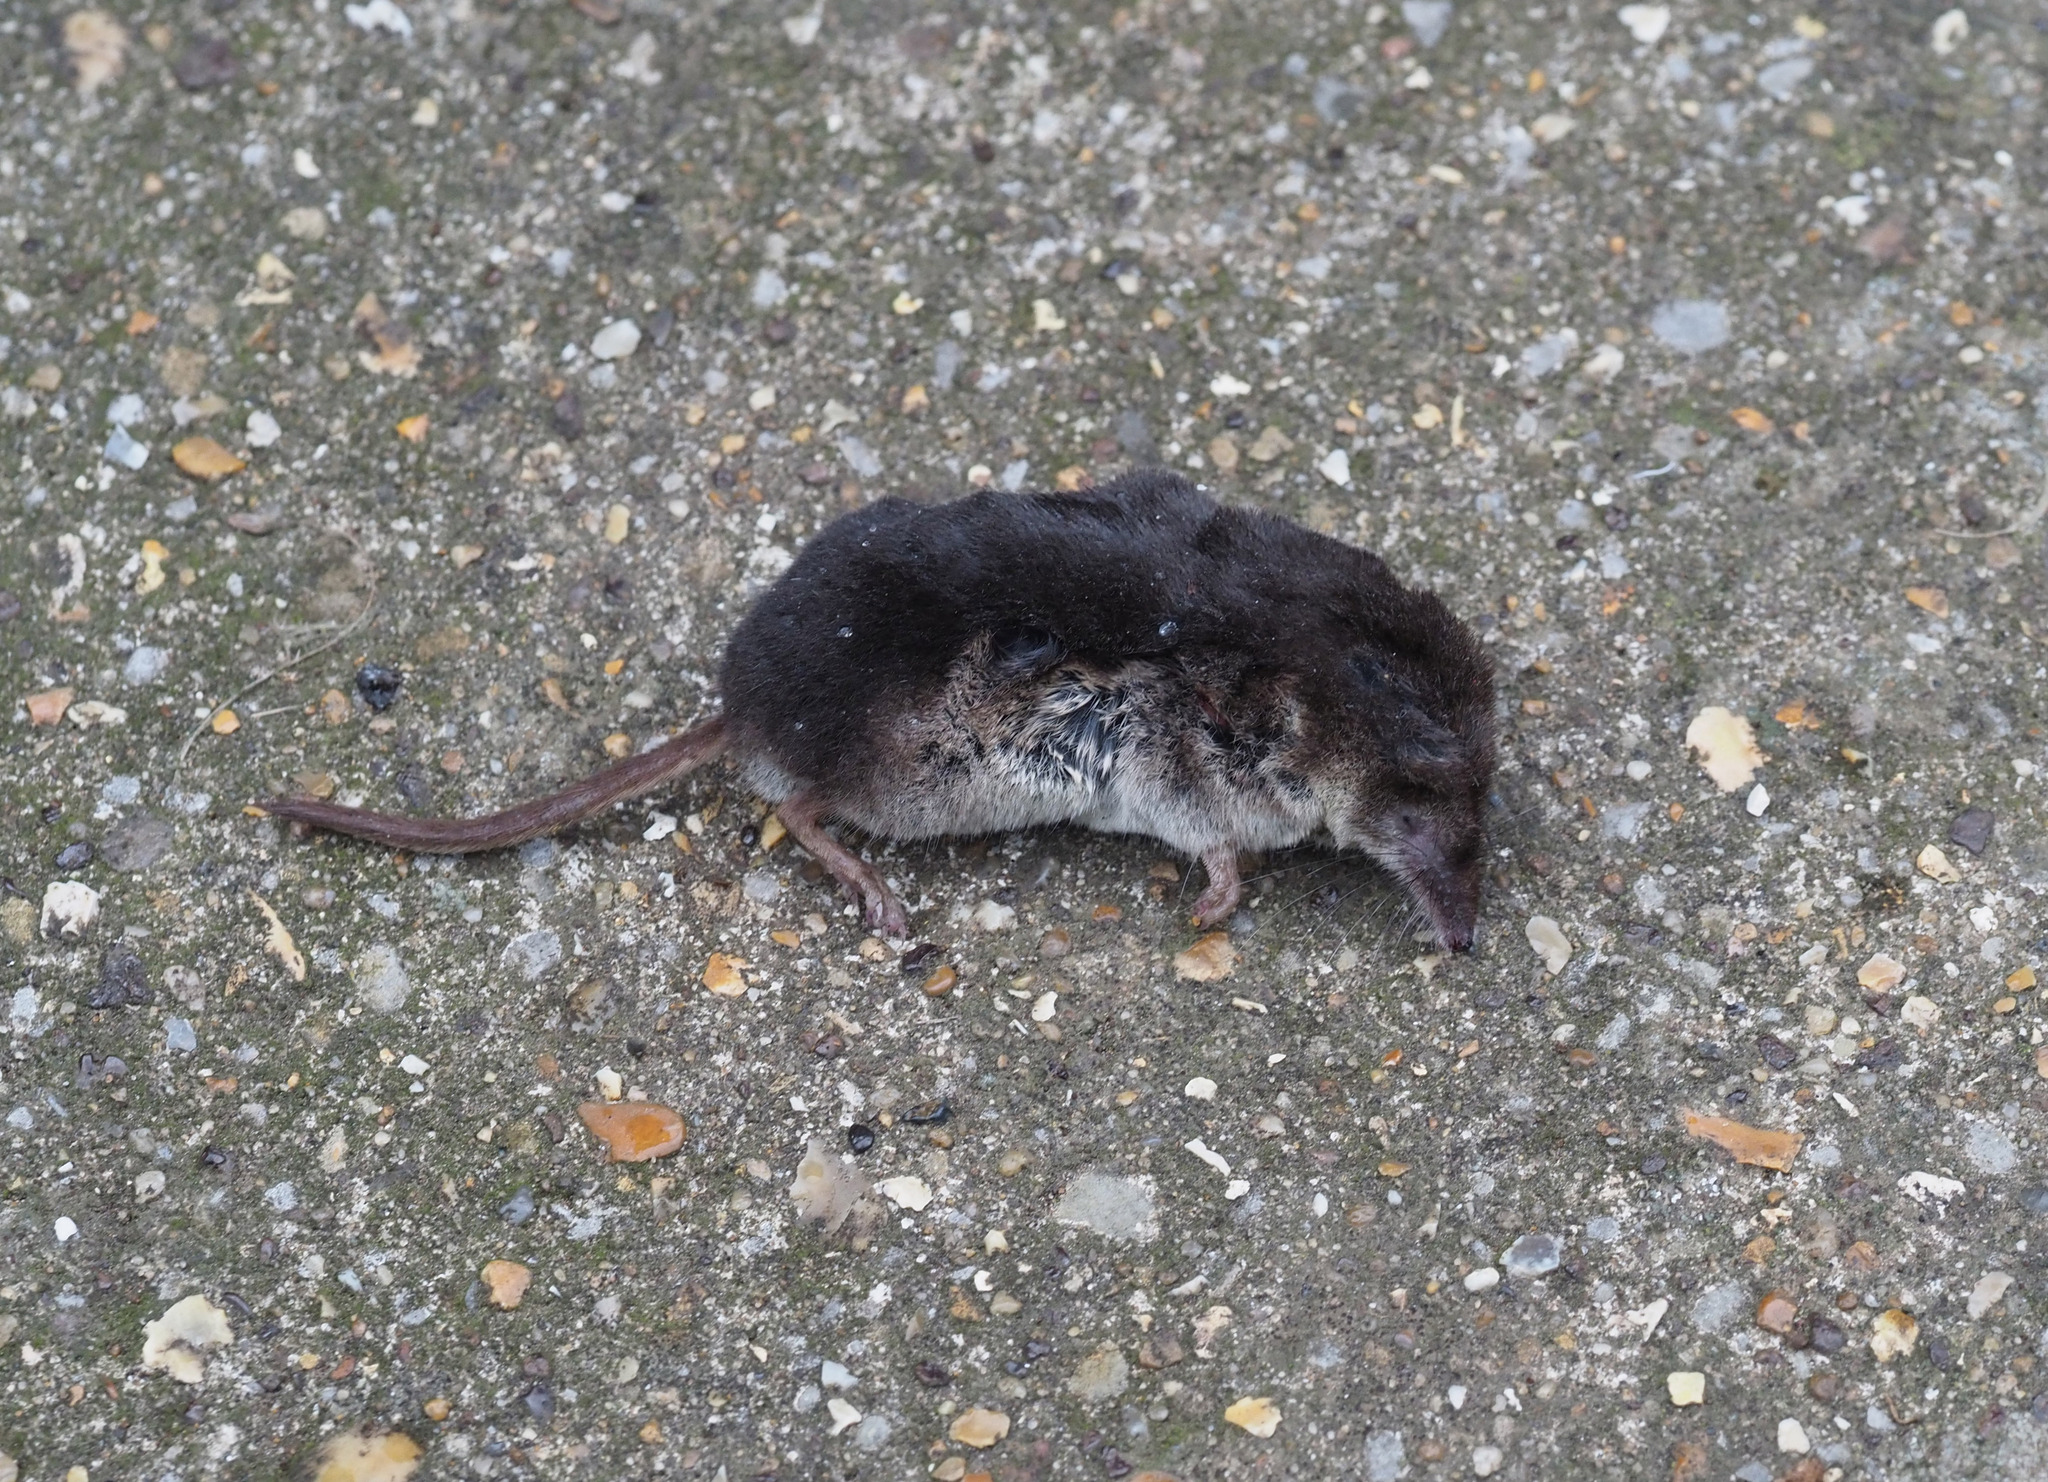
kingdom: Animalia
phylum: Chordata
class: Mammalia
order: Soricomorpha
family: Soricidae
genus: Sorex
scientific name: Sorex araneus
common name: Common shrew
